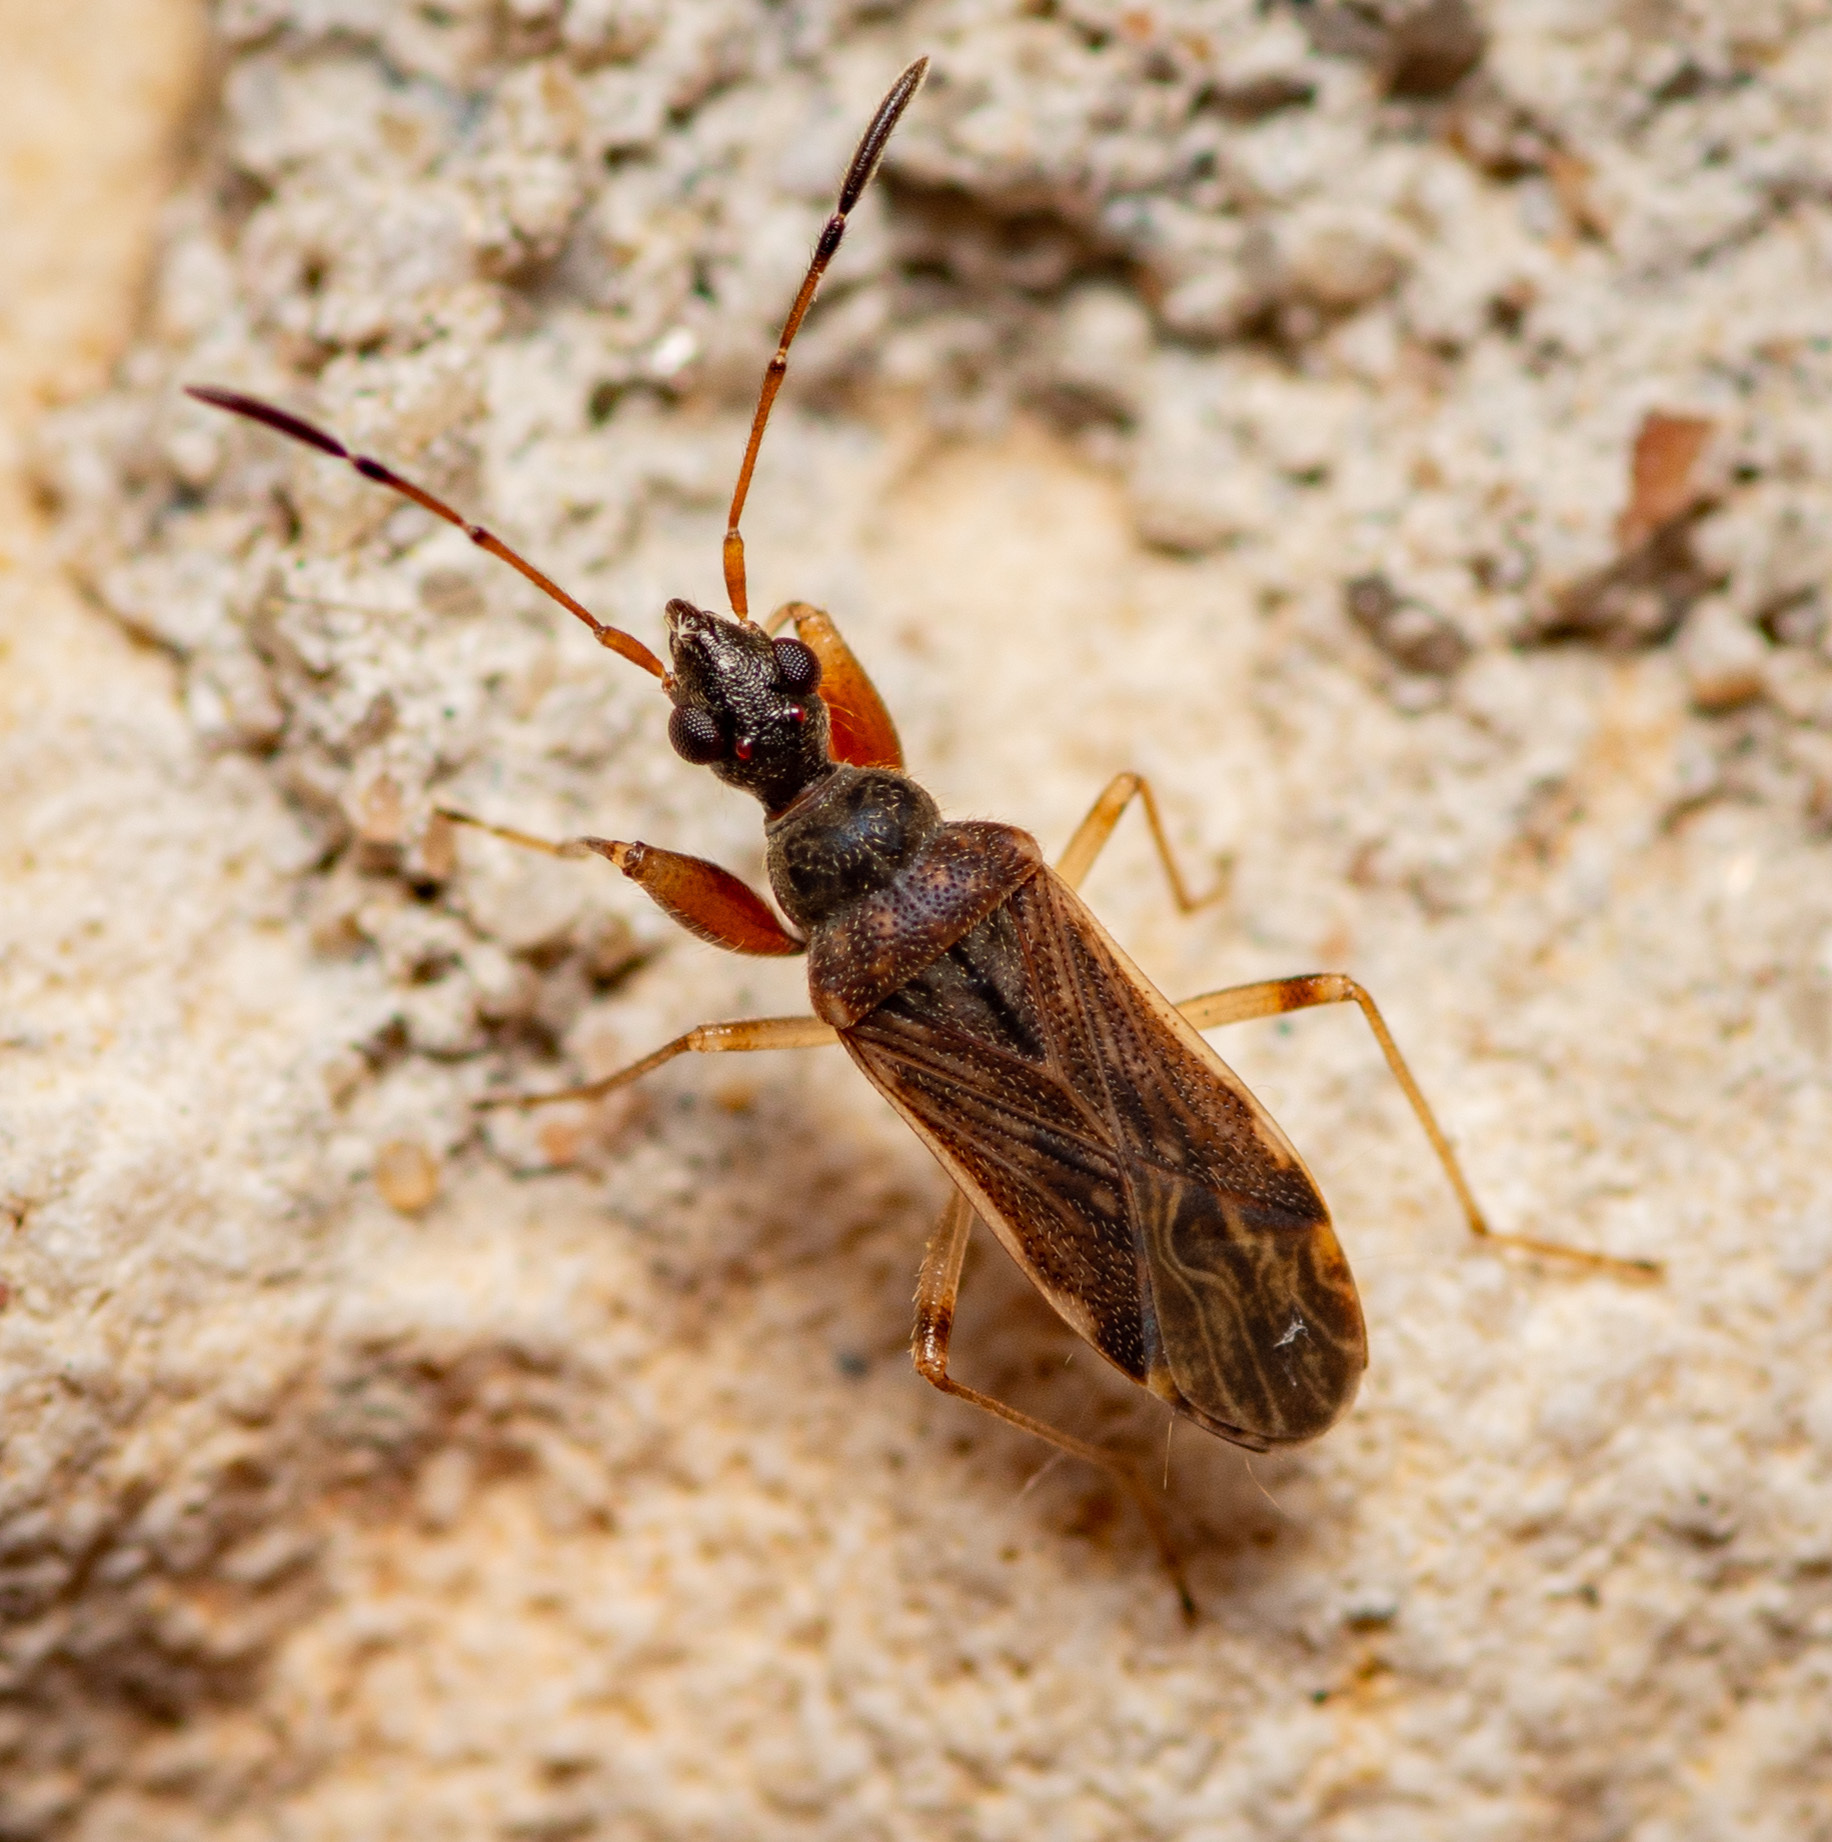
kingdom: Animalia
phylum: Arthropoda
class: Insecta
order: Hemiptera
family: Rhyparochromidae
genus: Heraeus
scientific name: Heraeus plebejus
